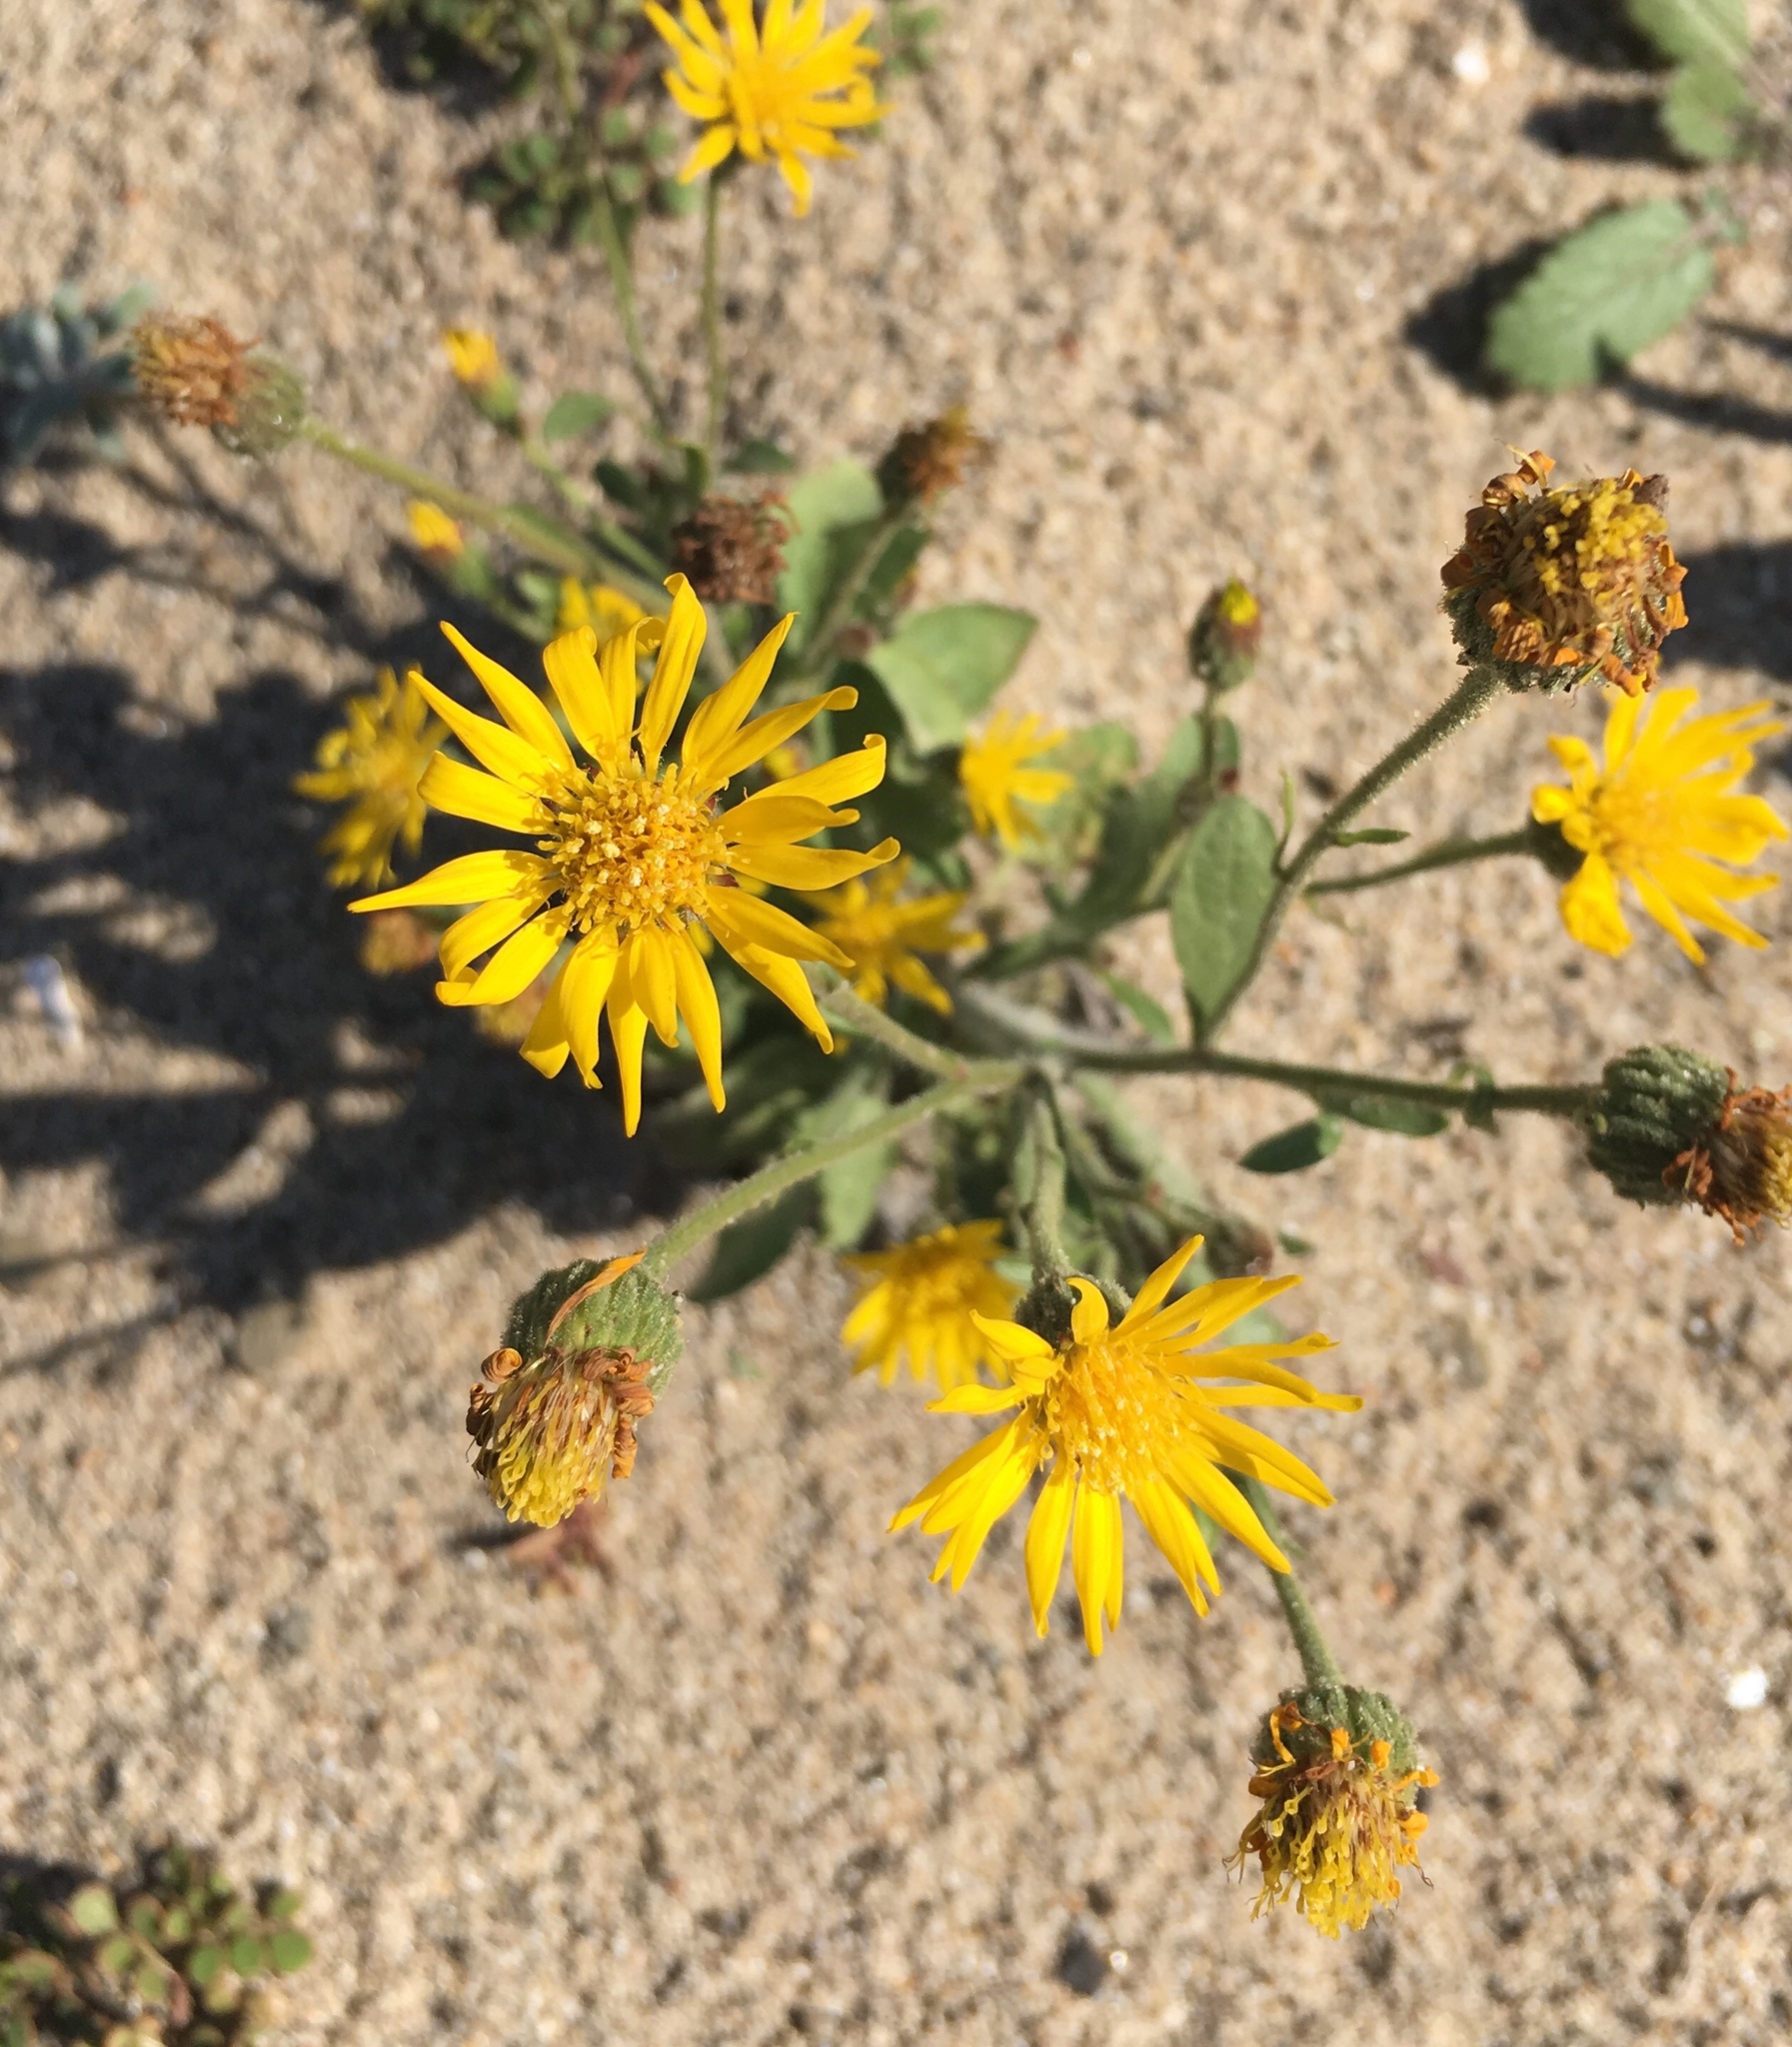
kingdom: Plantae
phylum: Tracheophyta
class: Magnoliopsida
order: Asterales
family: Asteraceae
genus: Heterotheca
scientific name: Heterotheca grandiflora
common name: Telegraphweed
